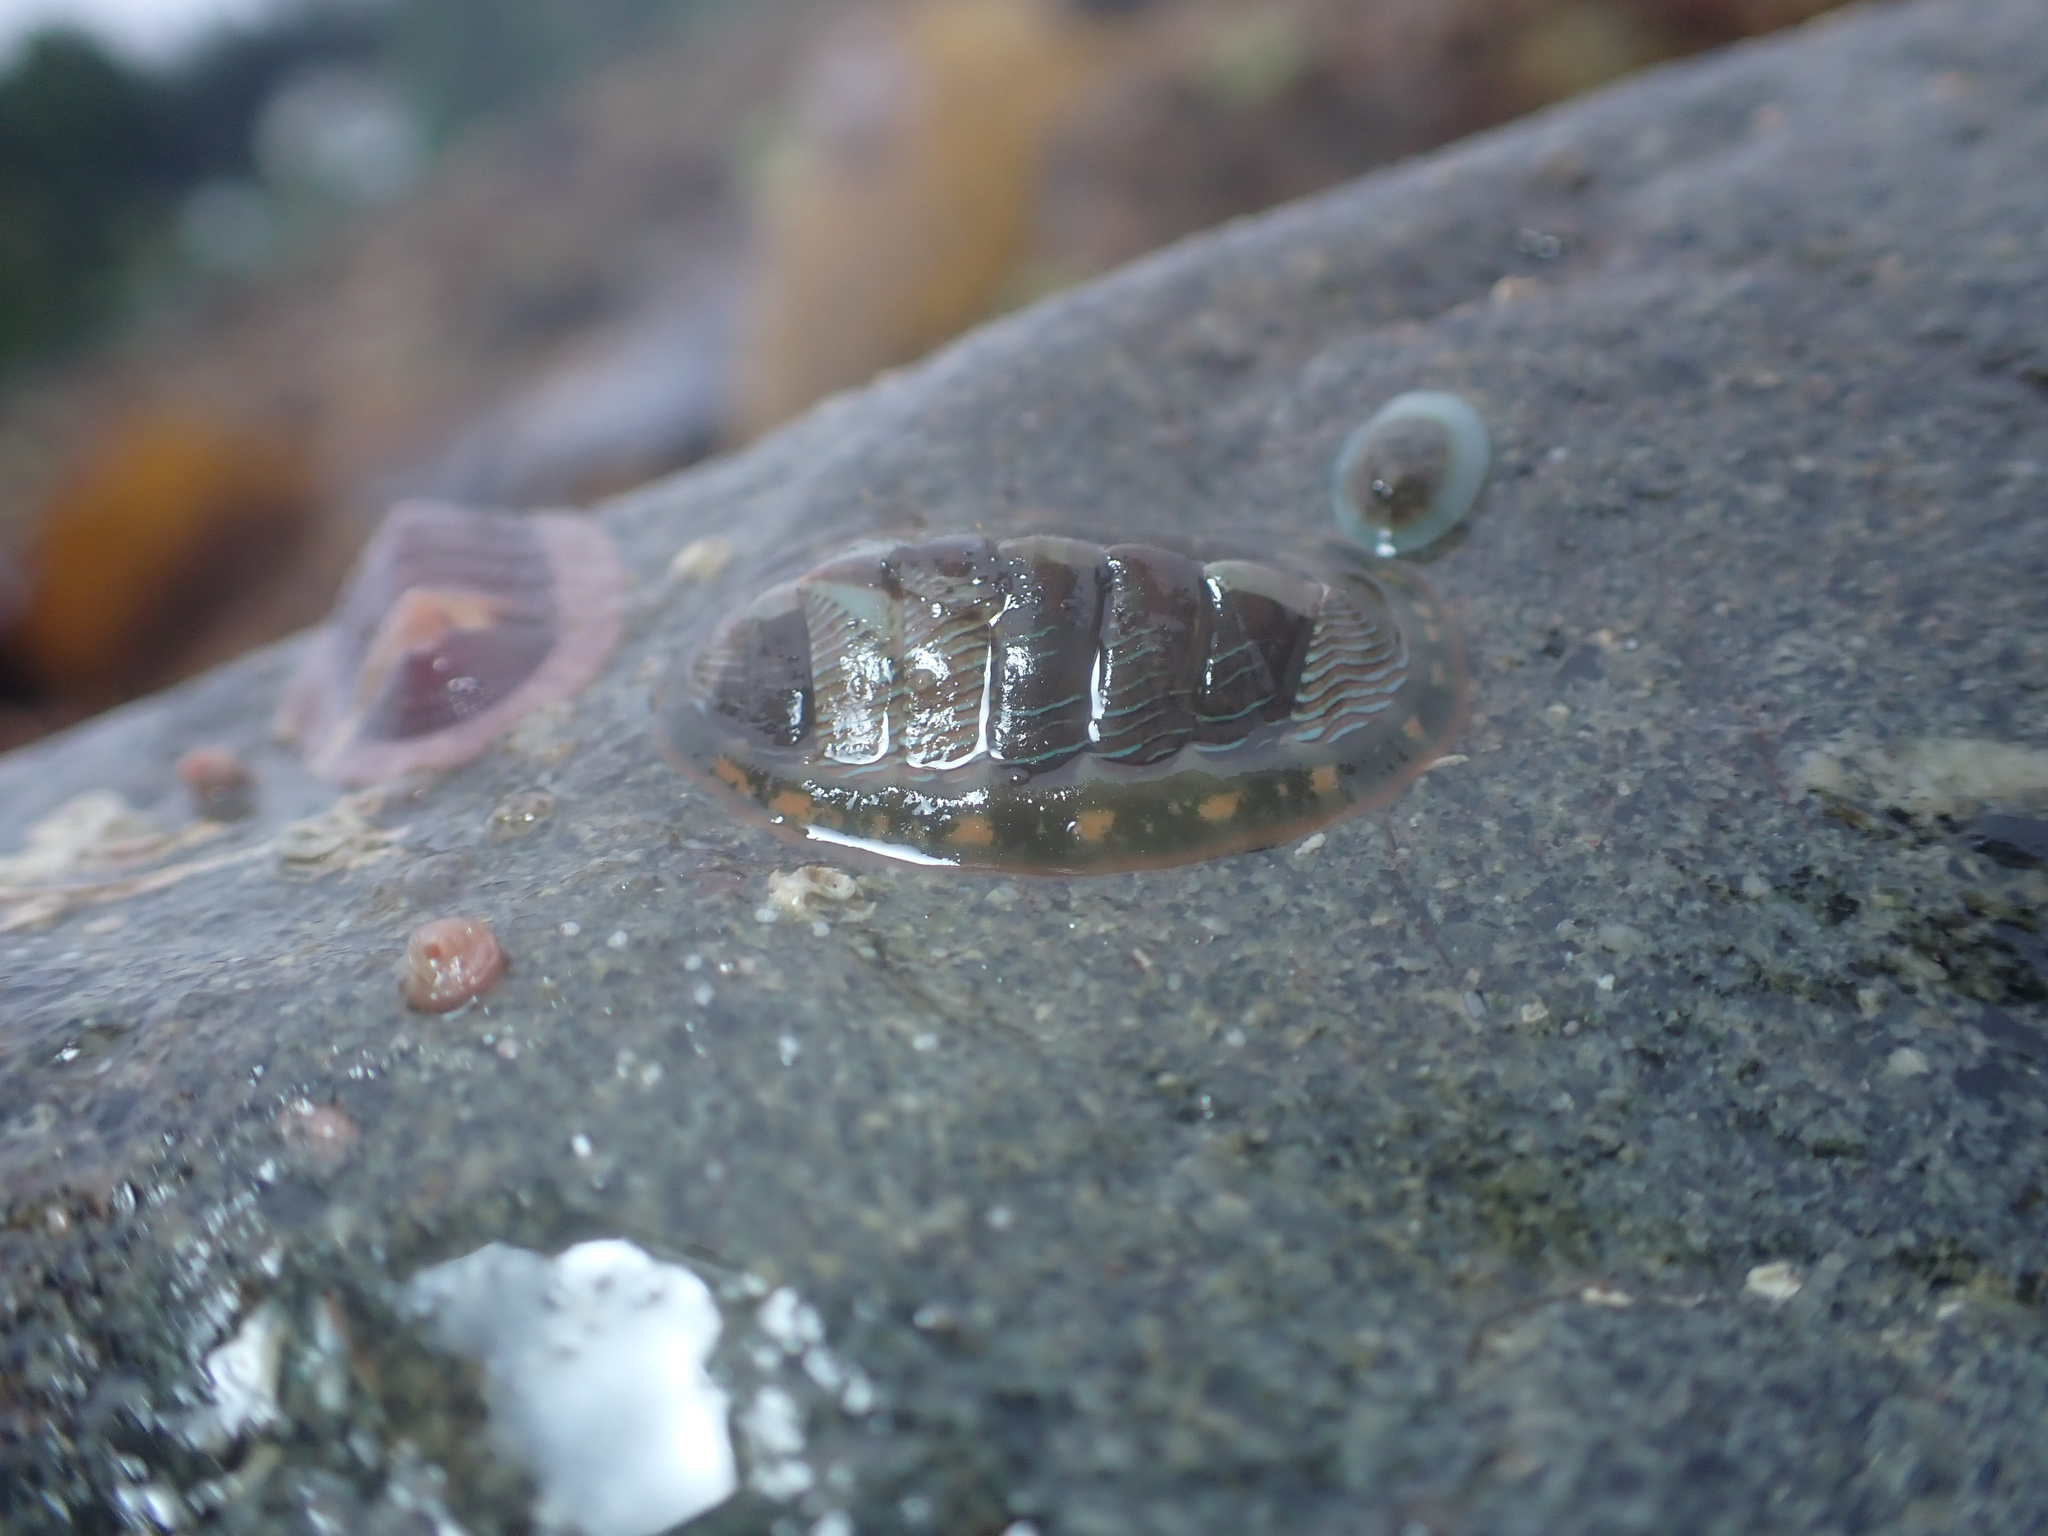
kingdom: Animalia
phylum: Mollusca
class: Polyplacophora
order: Chitonida
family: Tonicellidae
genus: Tonicella
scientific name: Tonicella lineata
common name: Lined chiton
